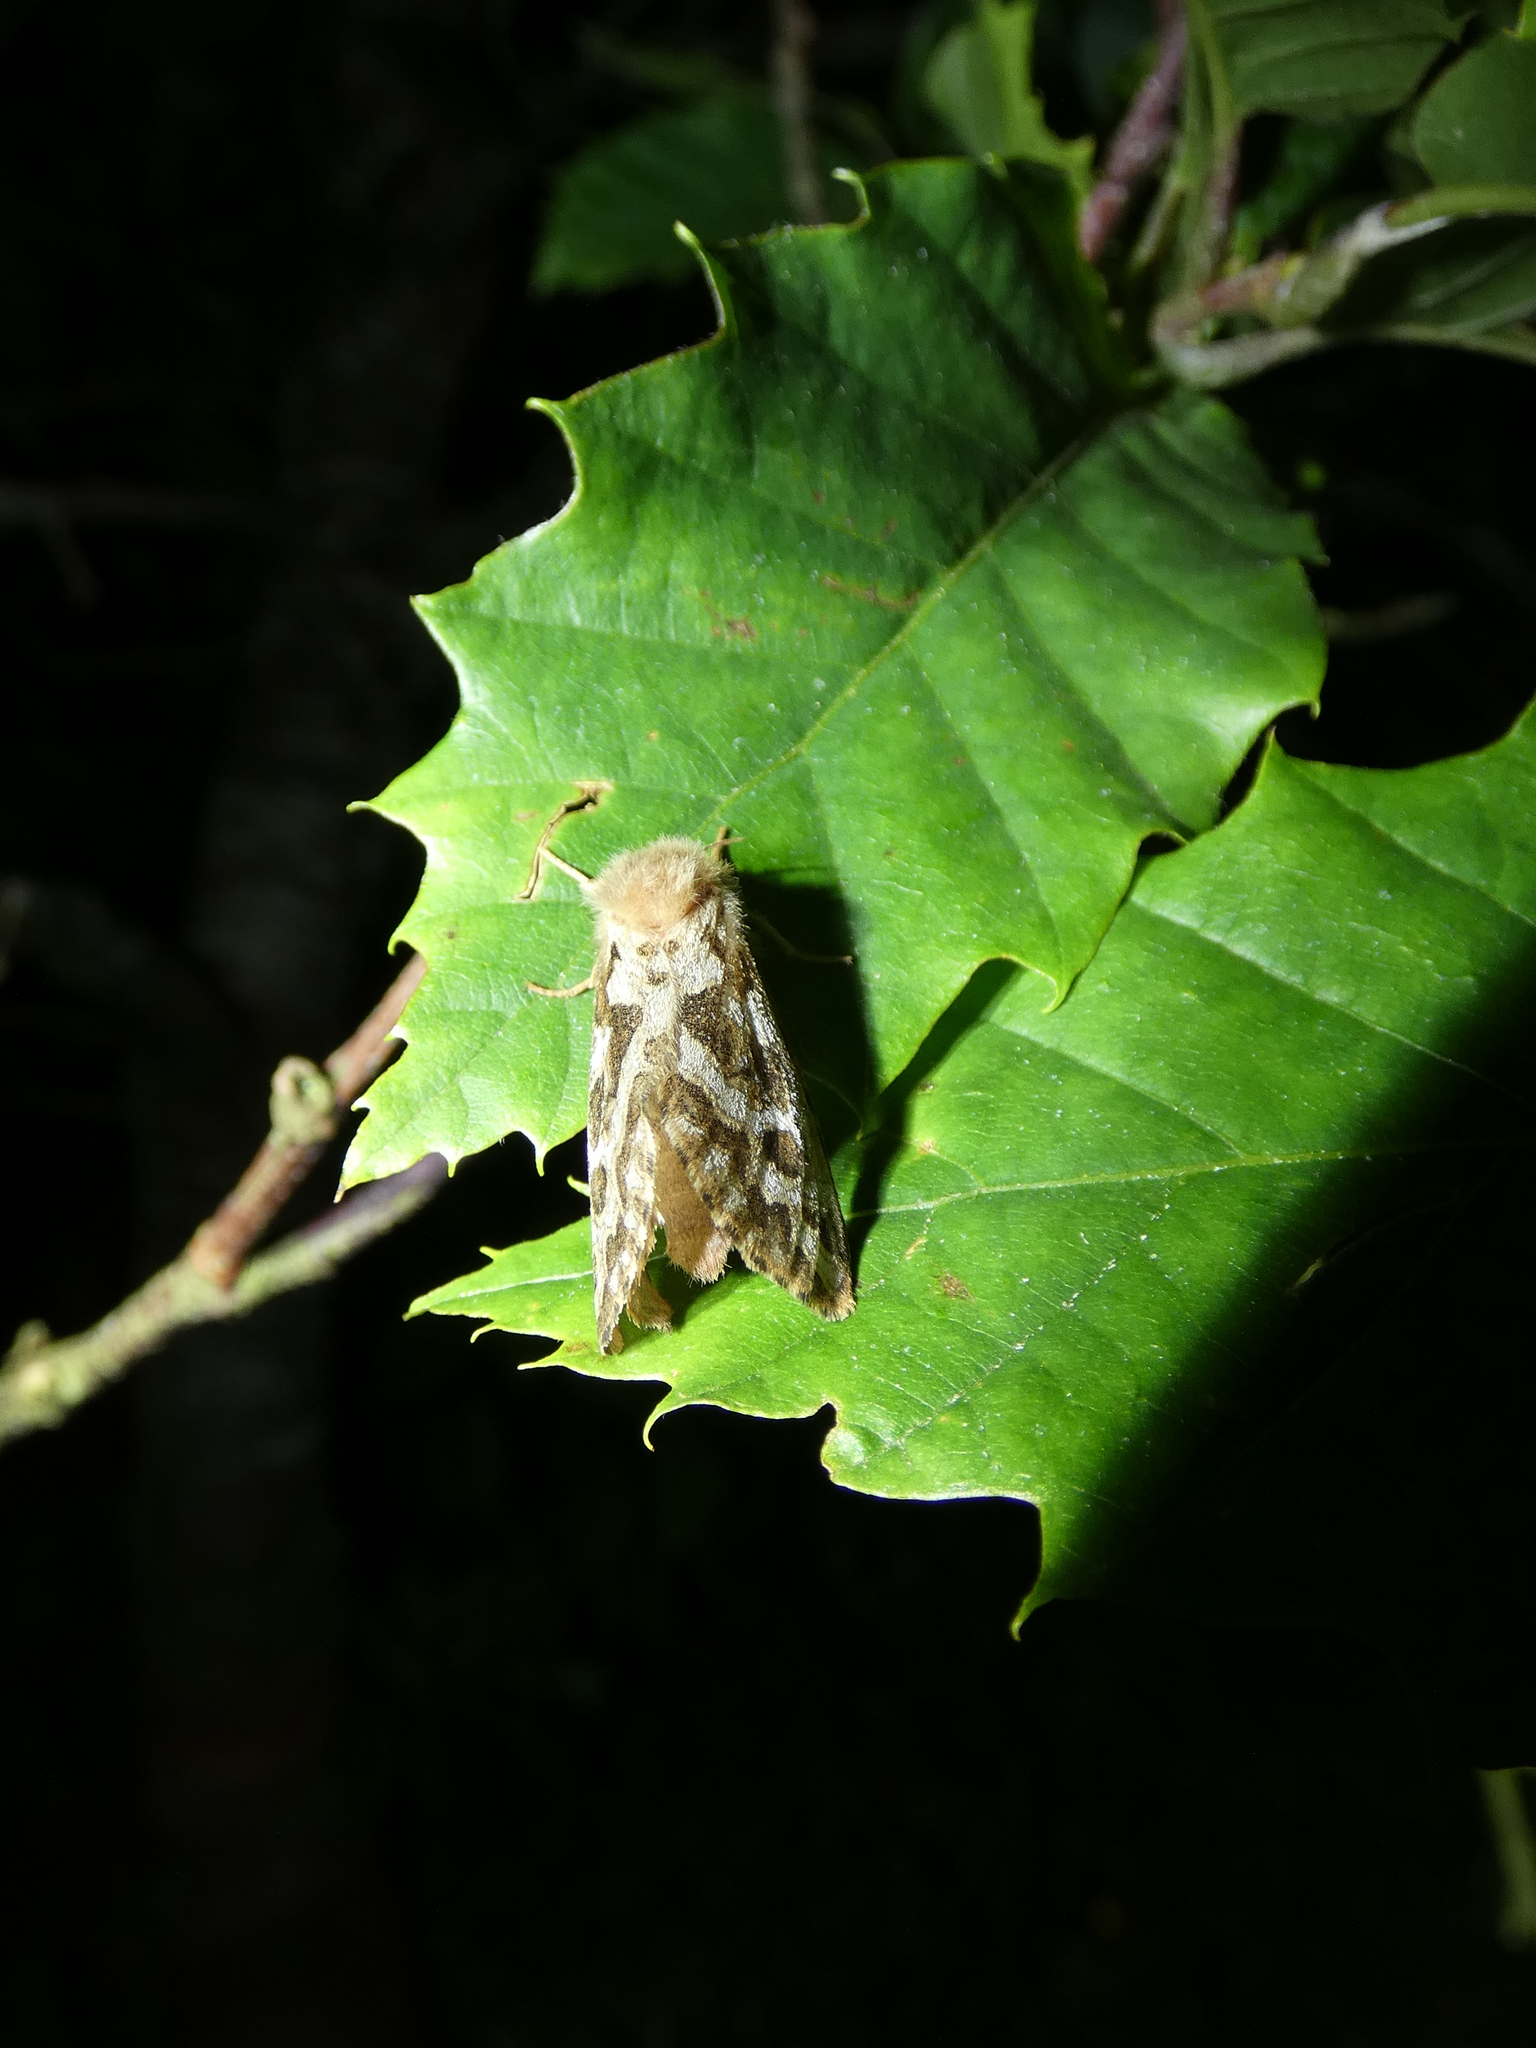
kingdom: Animalia
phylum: Arthropoda
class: Insecta
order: Lepidoptera
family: Hepialidae
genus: Korscheltellus
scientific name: Korscheltellus fusconebulosus
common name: Map-winged swift
